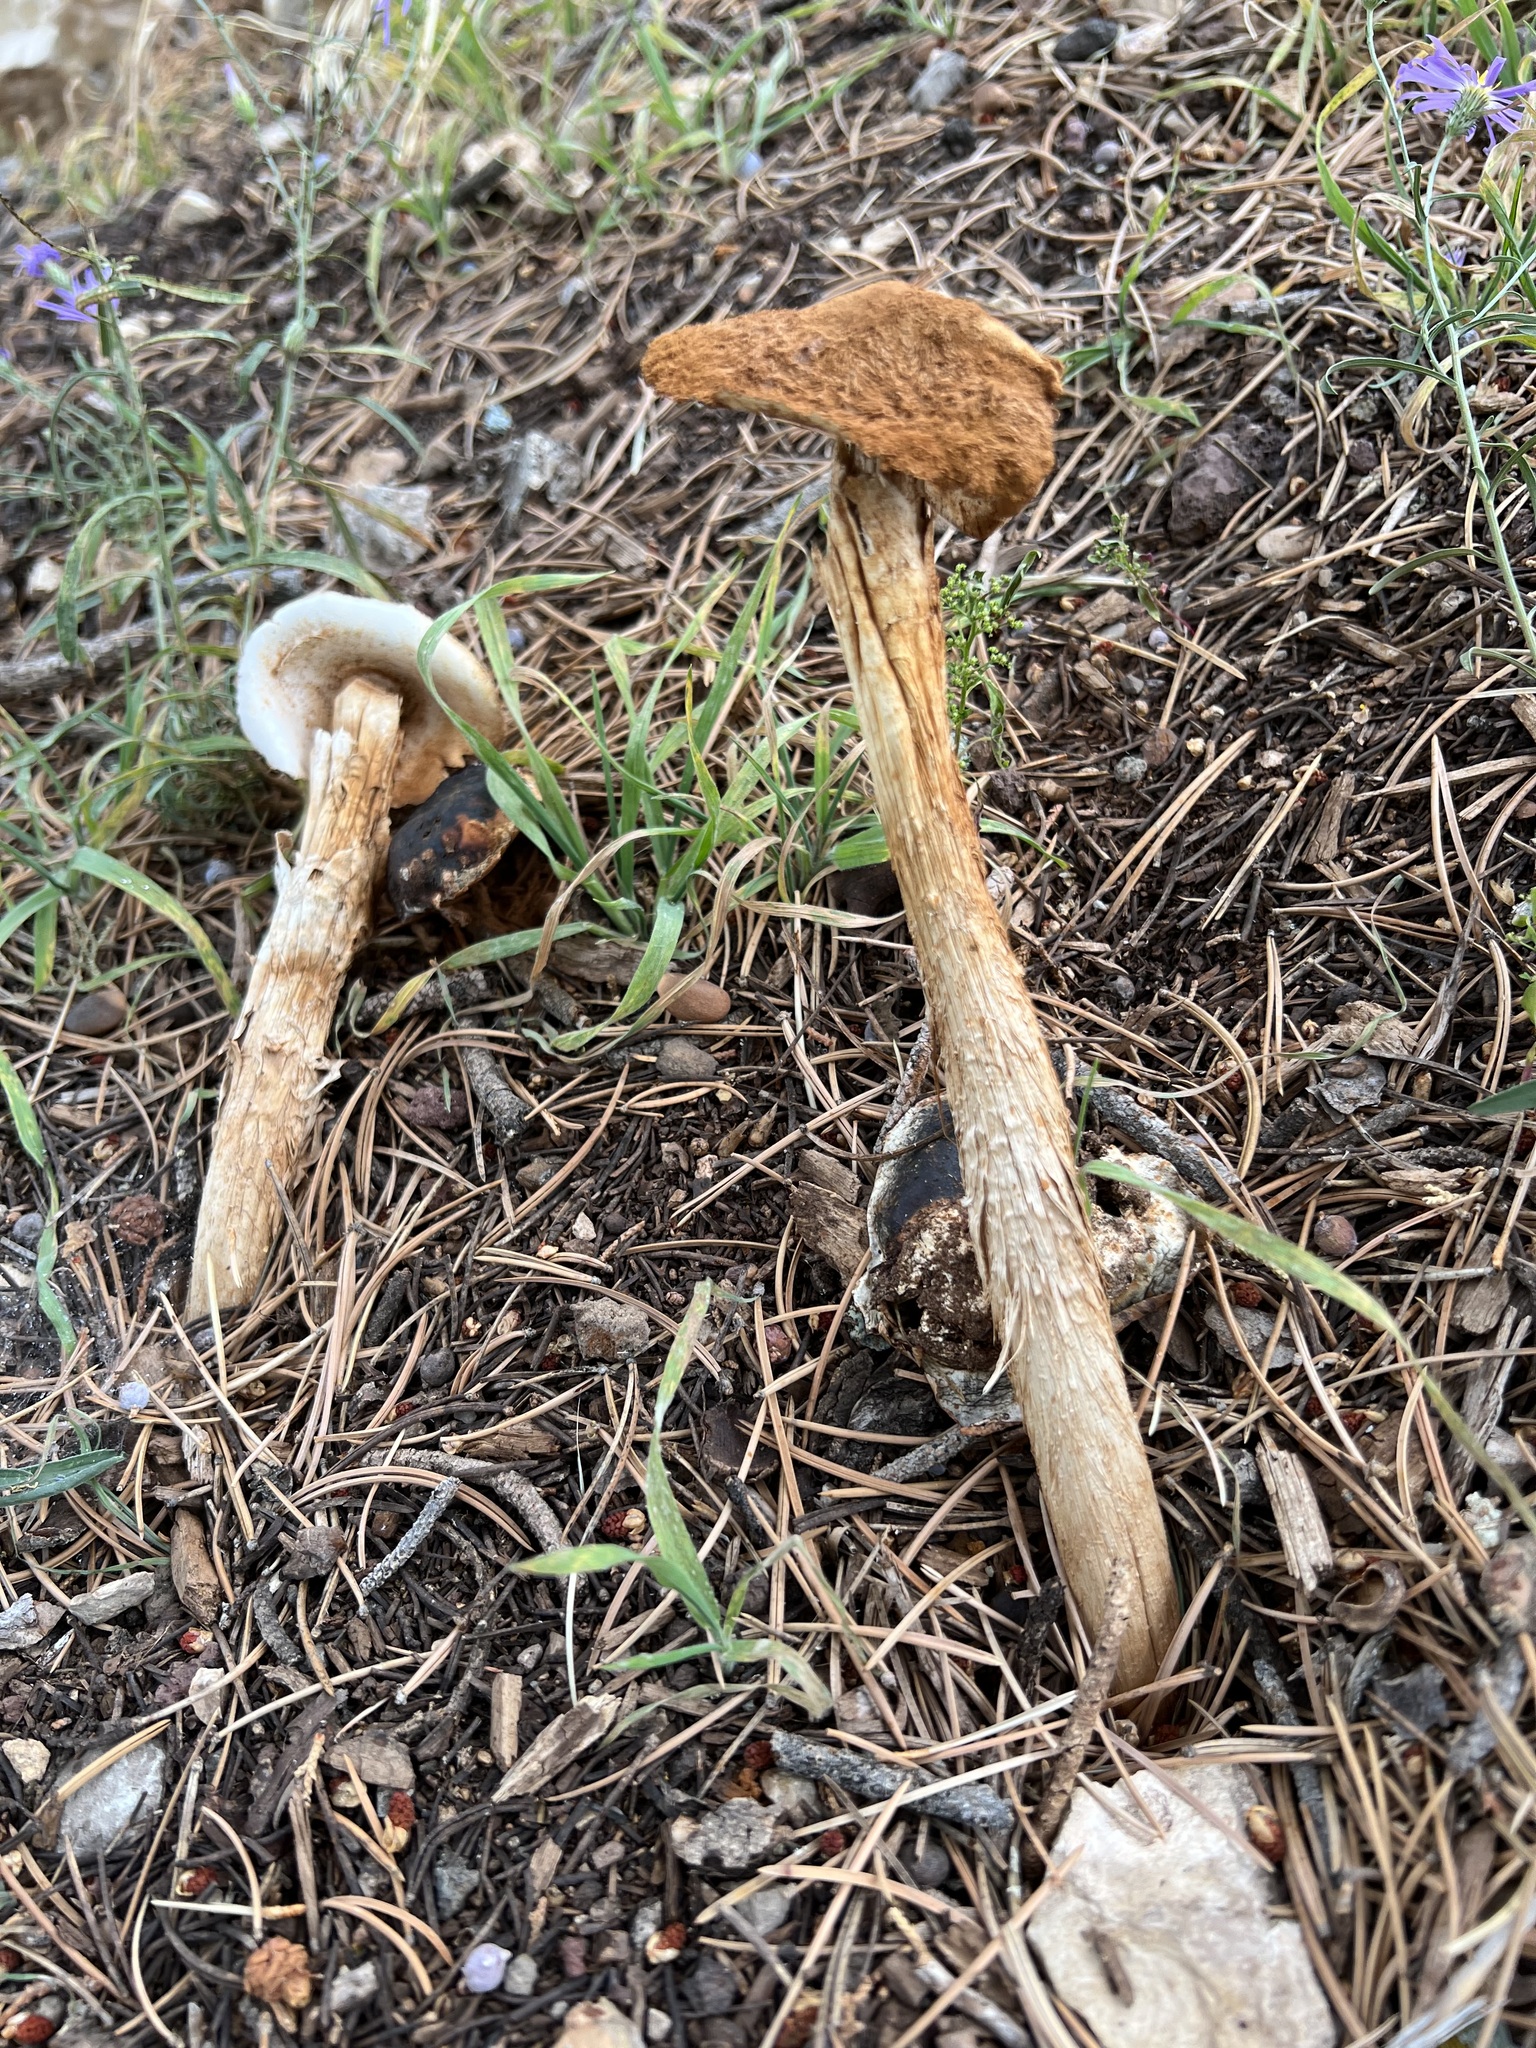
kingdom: Fungi
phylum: Basidiomycota
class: Agaricomycetes
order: Agaricales
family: Agaricaceae
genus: Battarrea
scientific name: Battarrea phalloides
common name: Sandy stiltball
